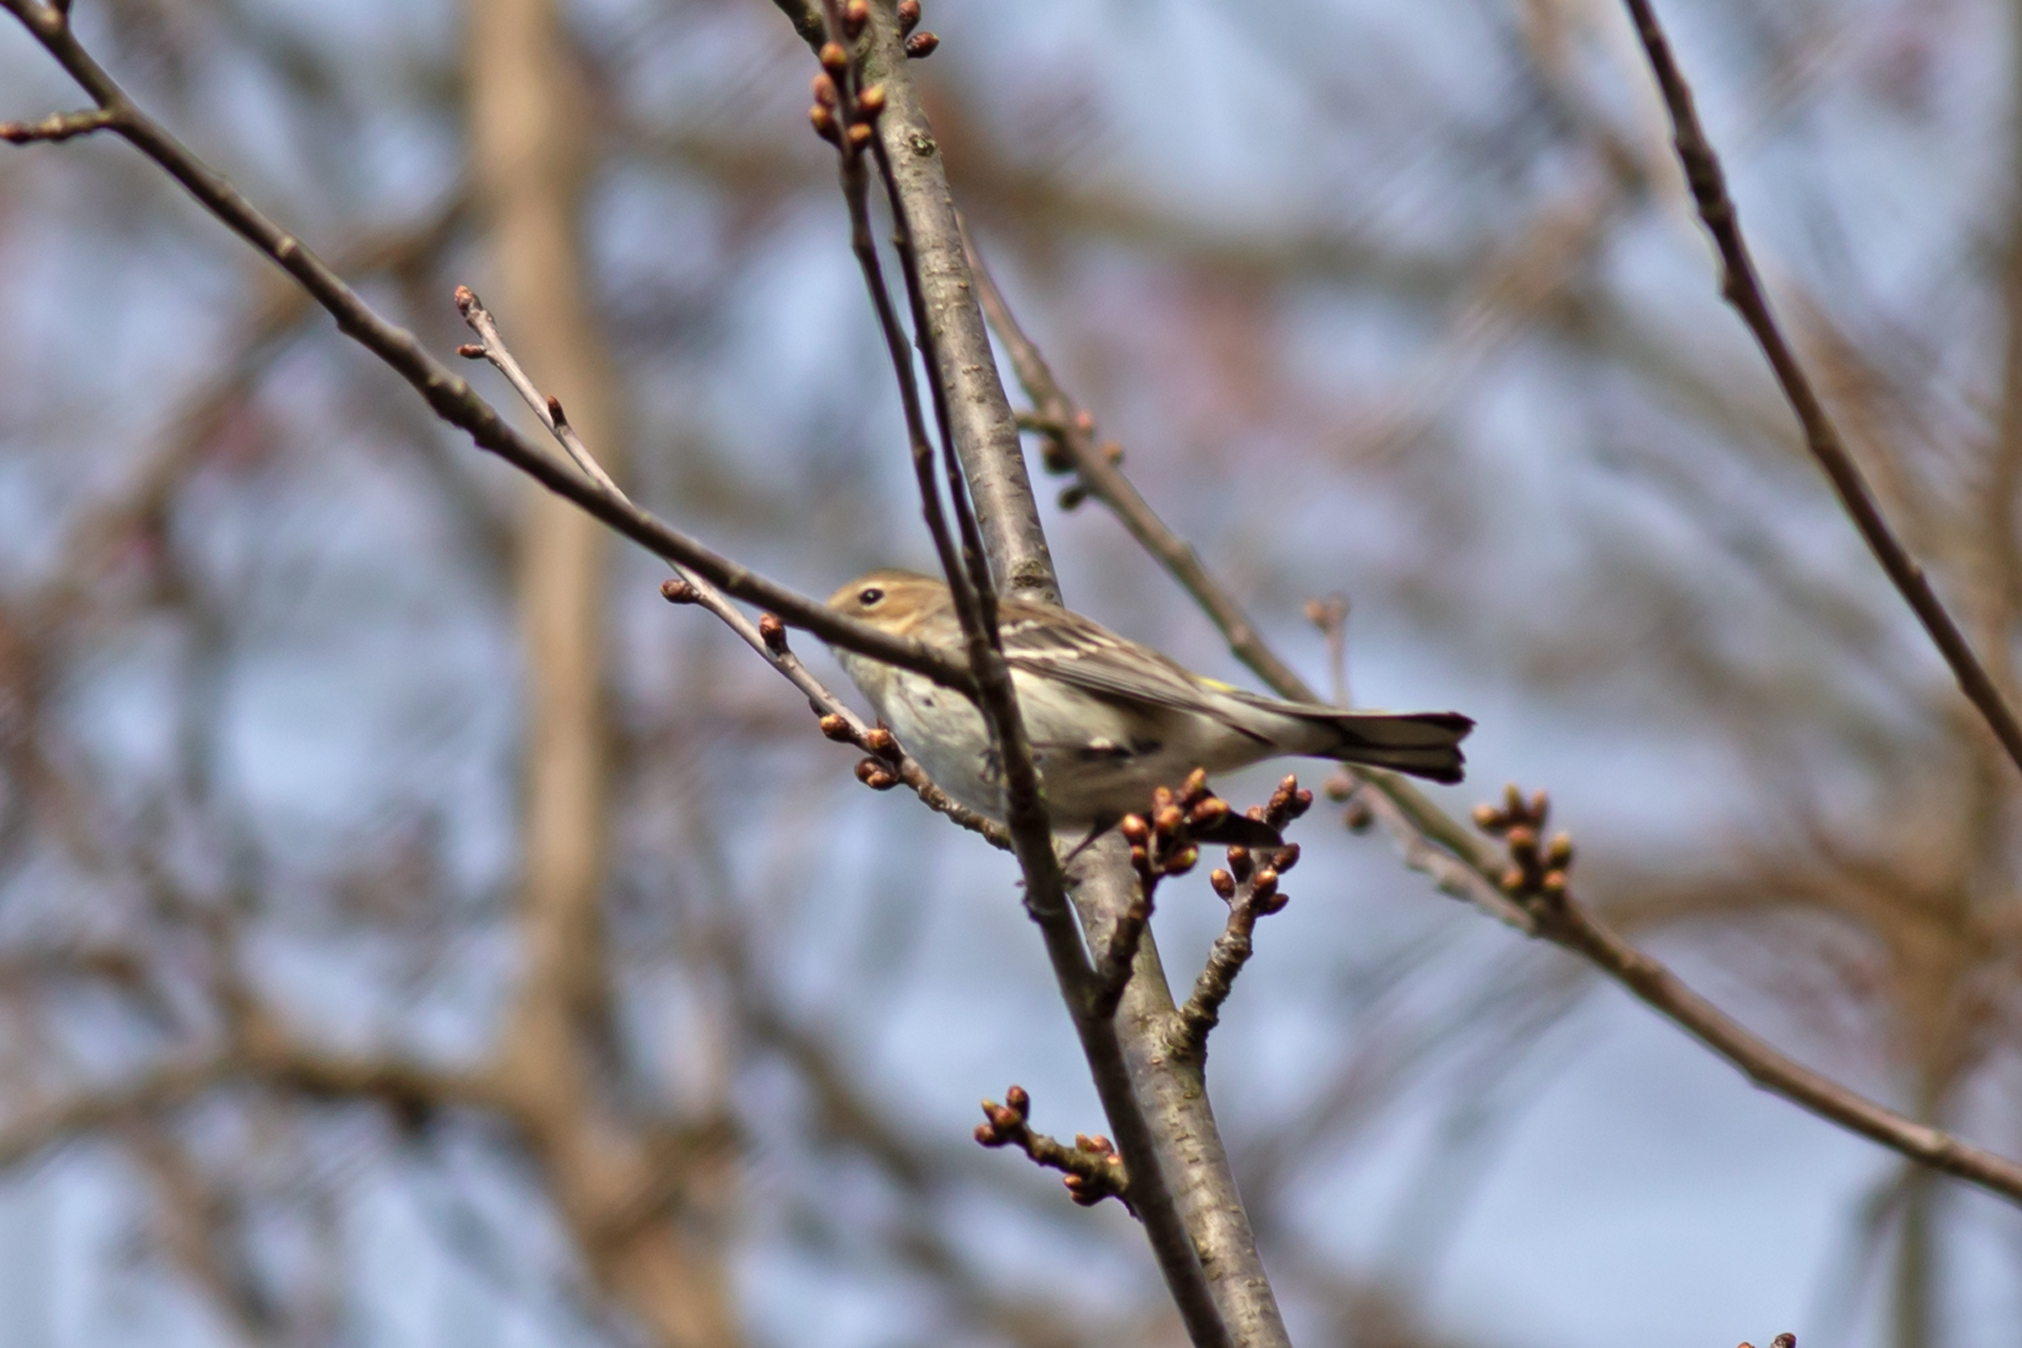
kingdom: Animalia
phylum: Chordata
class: Aves
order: Passeriformes
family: Parulidae
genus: Setophaga
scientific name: Setophaga coronata
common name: Myrtle warbler
